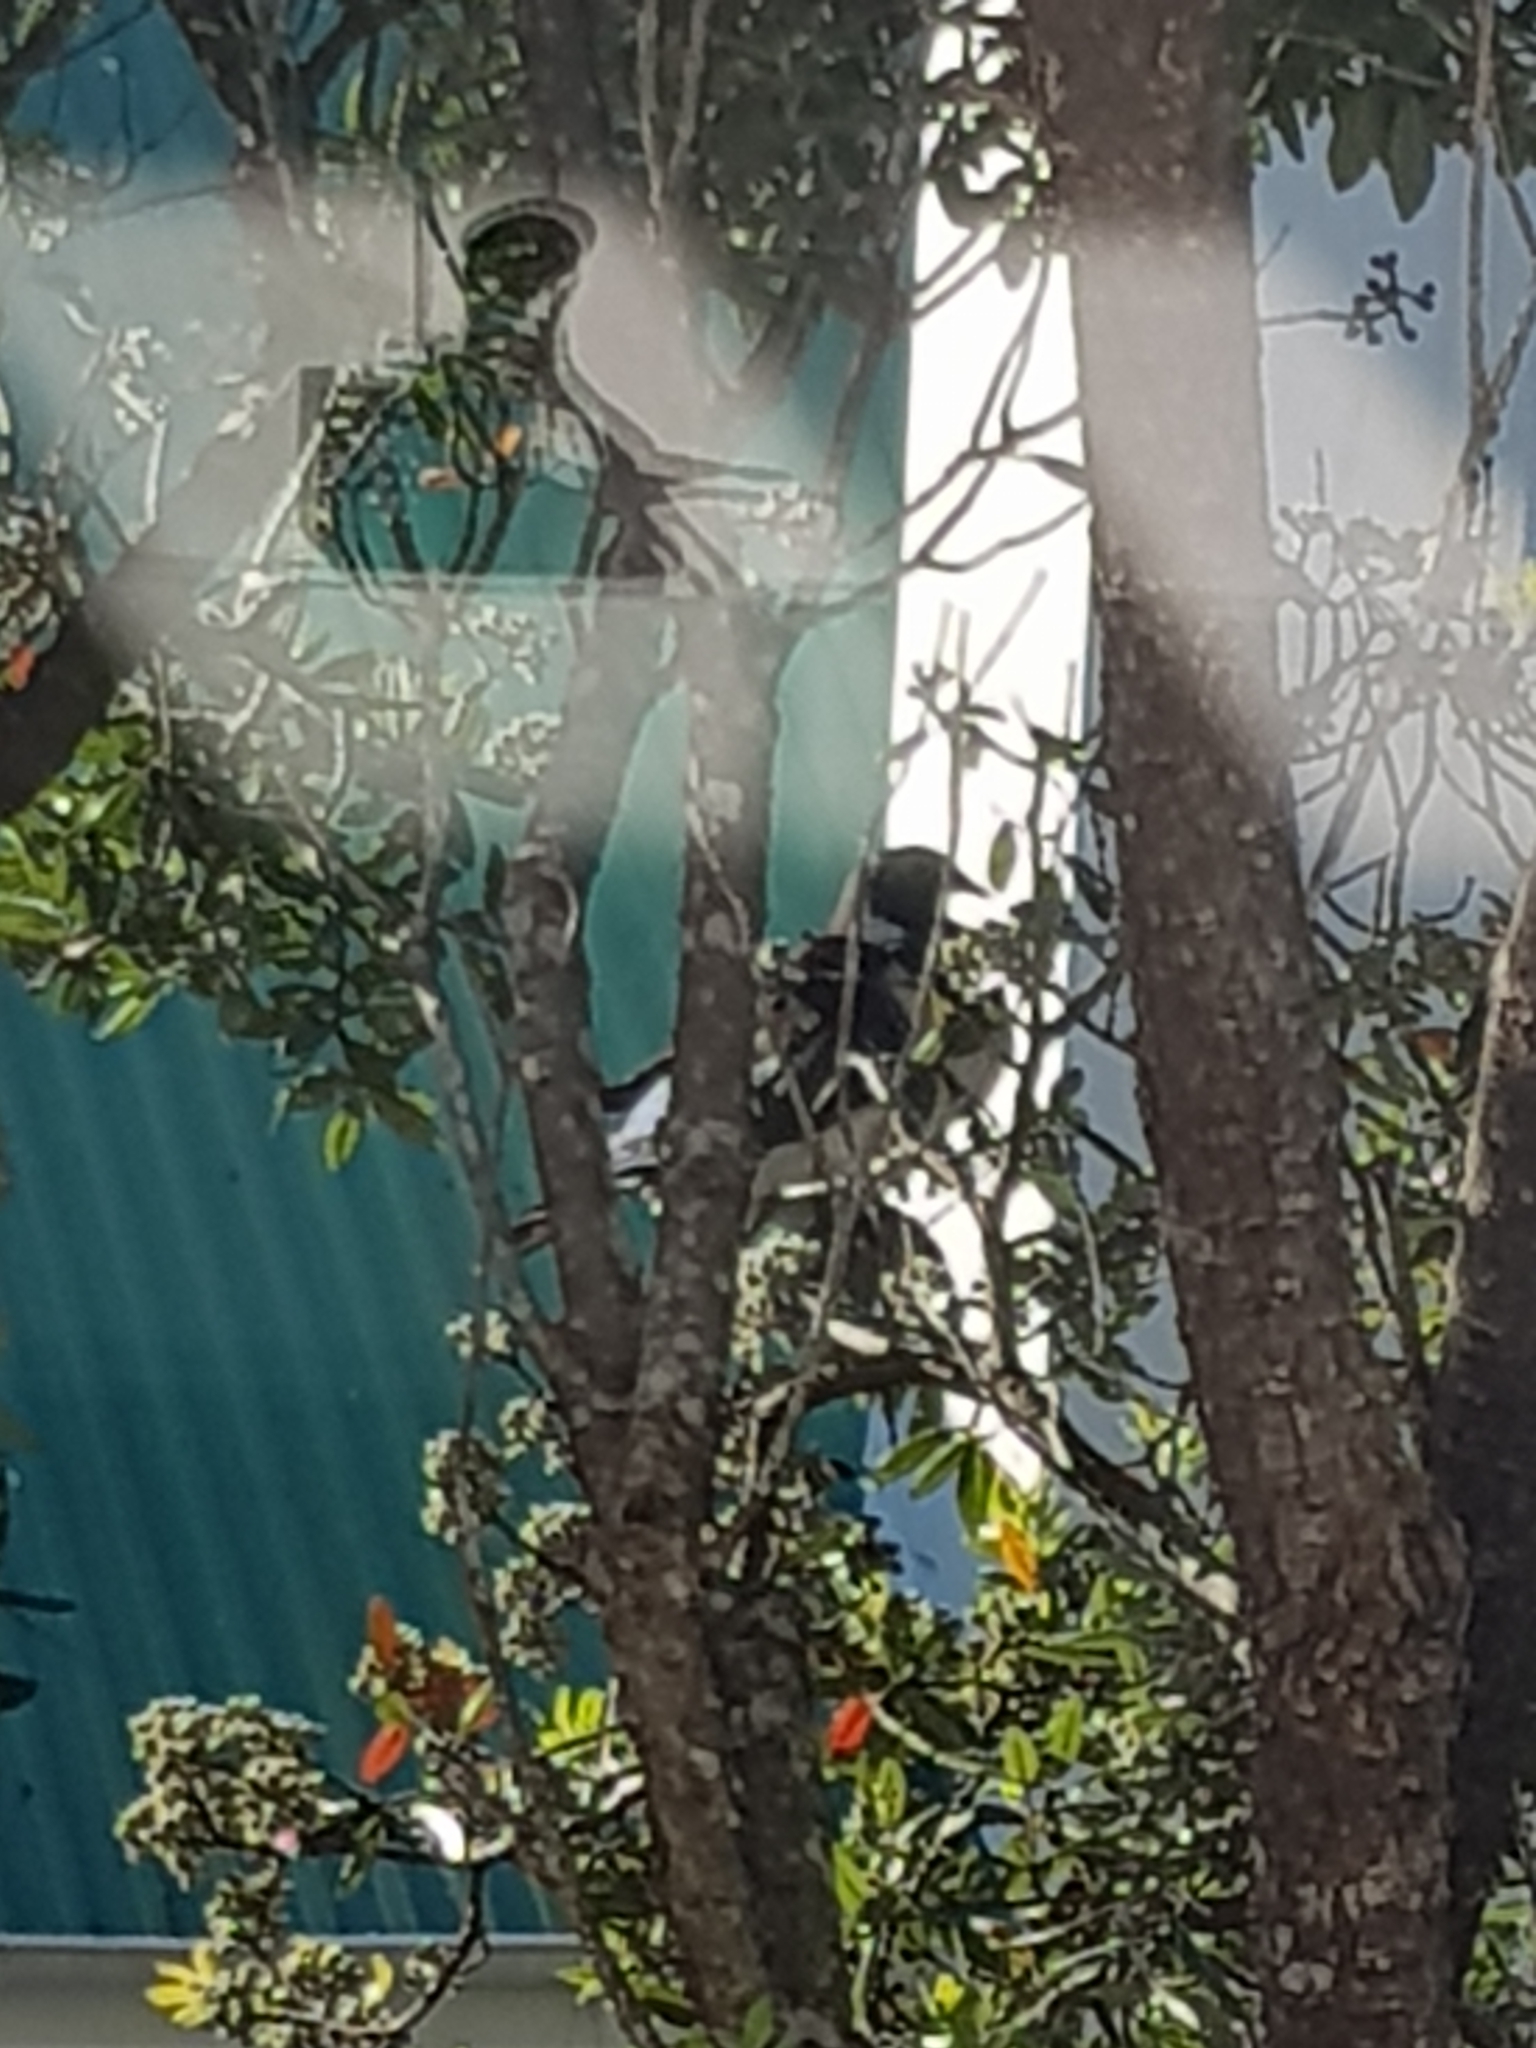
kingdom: Animalia
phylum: Chordata
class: Aves
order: Columbiformes
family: Columbidae
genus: Hemiphaga
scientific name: Hemiphaga novaeseelandiae
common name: New zealand pigeon
